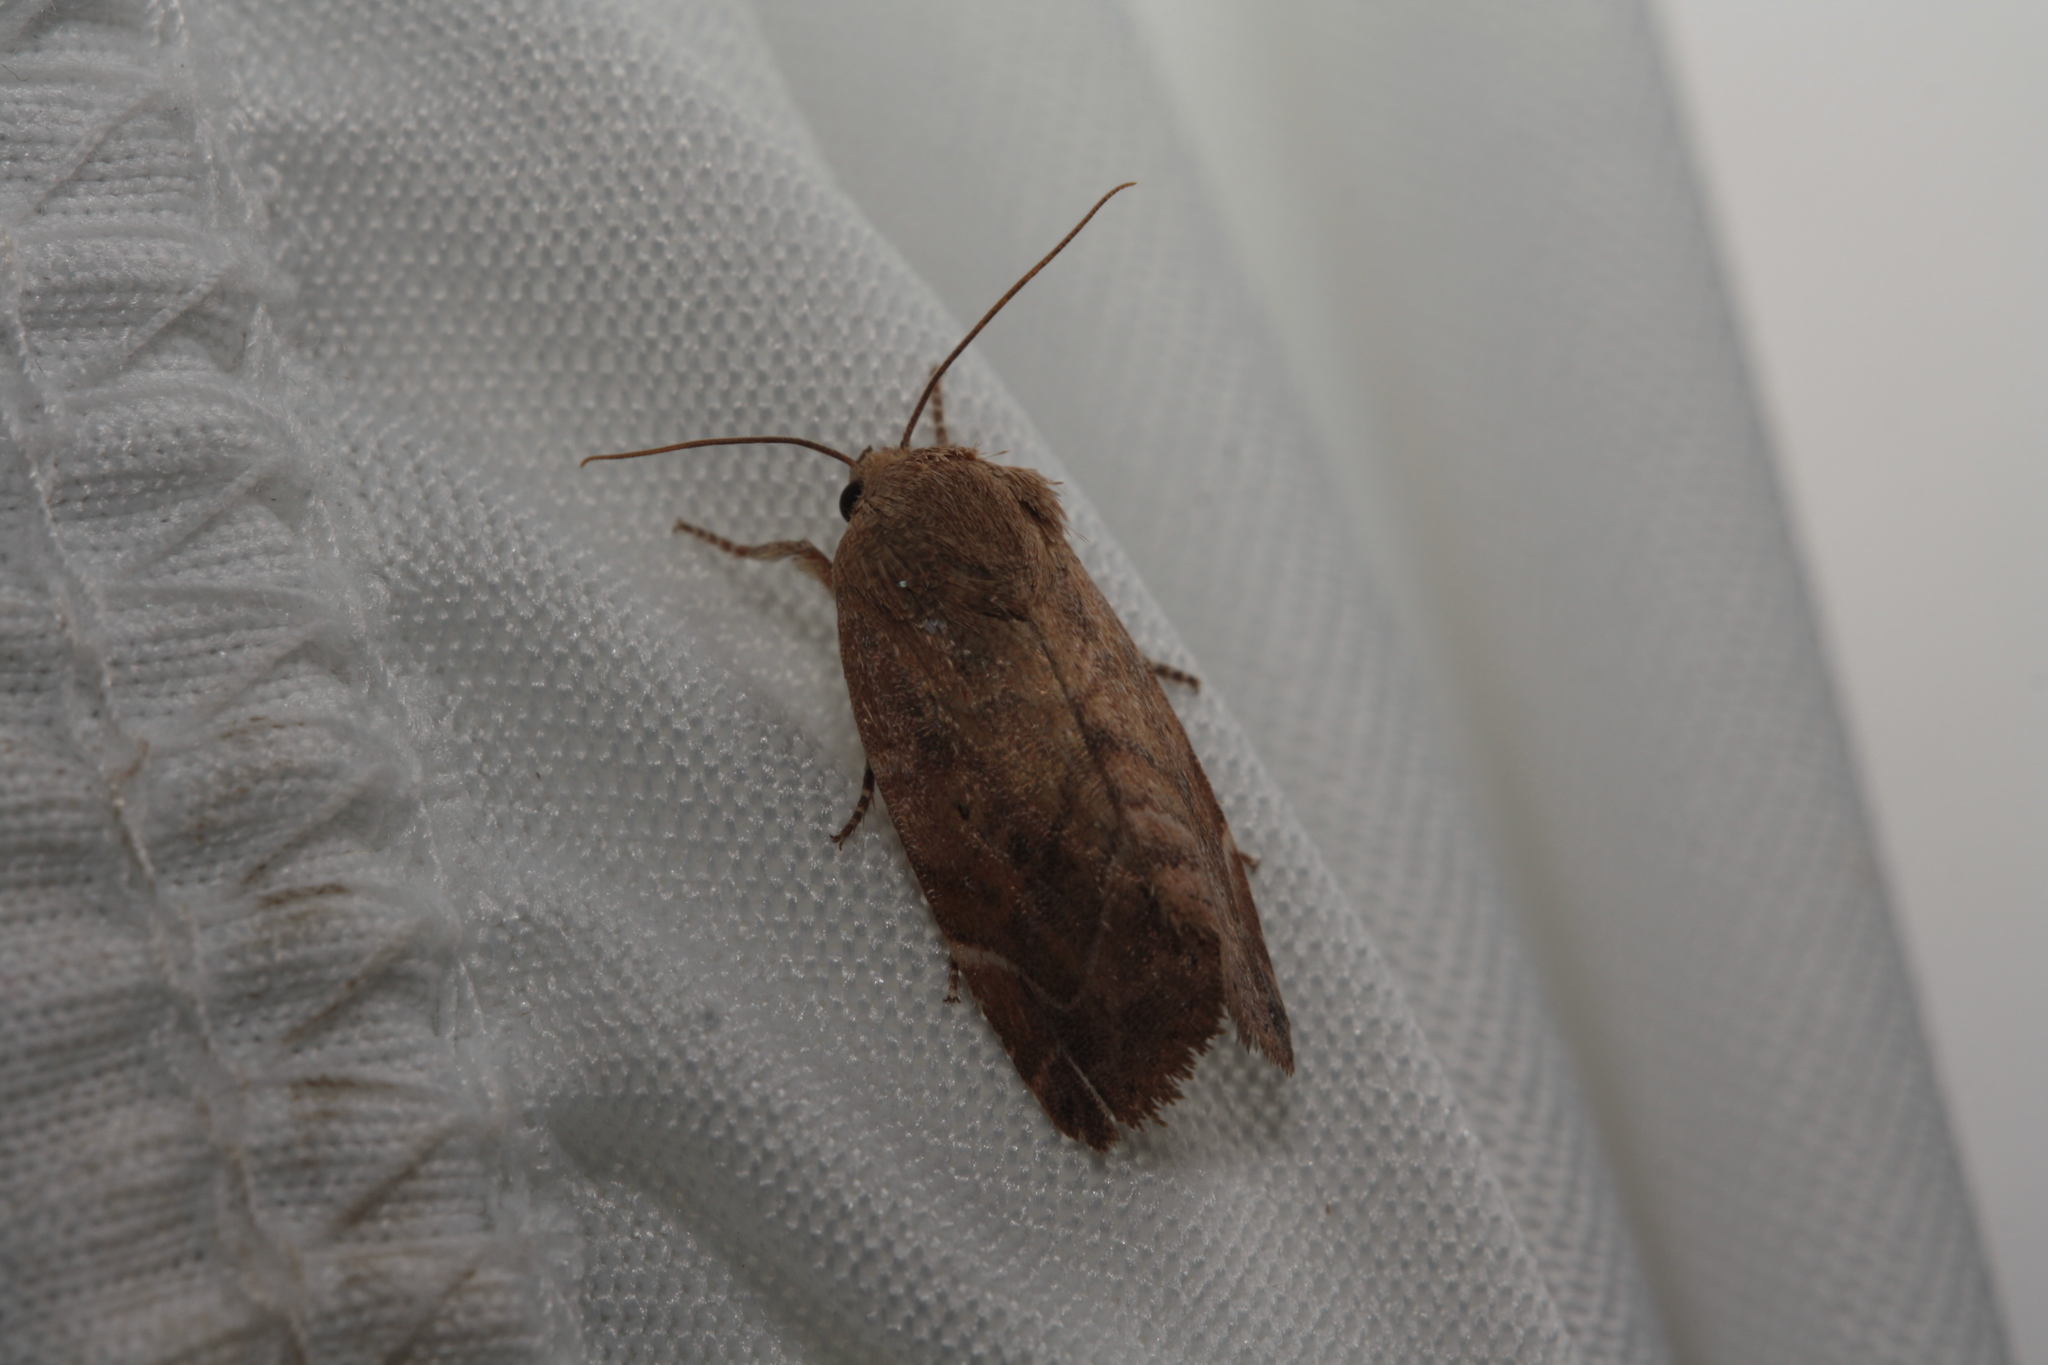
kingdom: Animalia
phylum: Arthropoda
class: Insecta
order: Lepidoptera
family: Noctuidae
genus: Cosmia
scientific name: Cosmia affinis
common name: Lesser-spotted pinion
